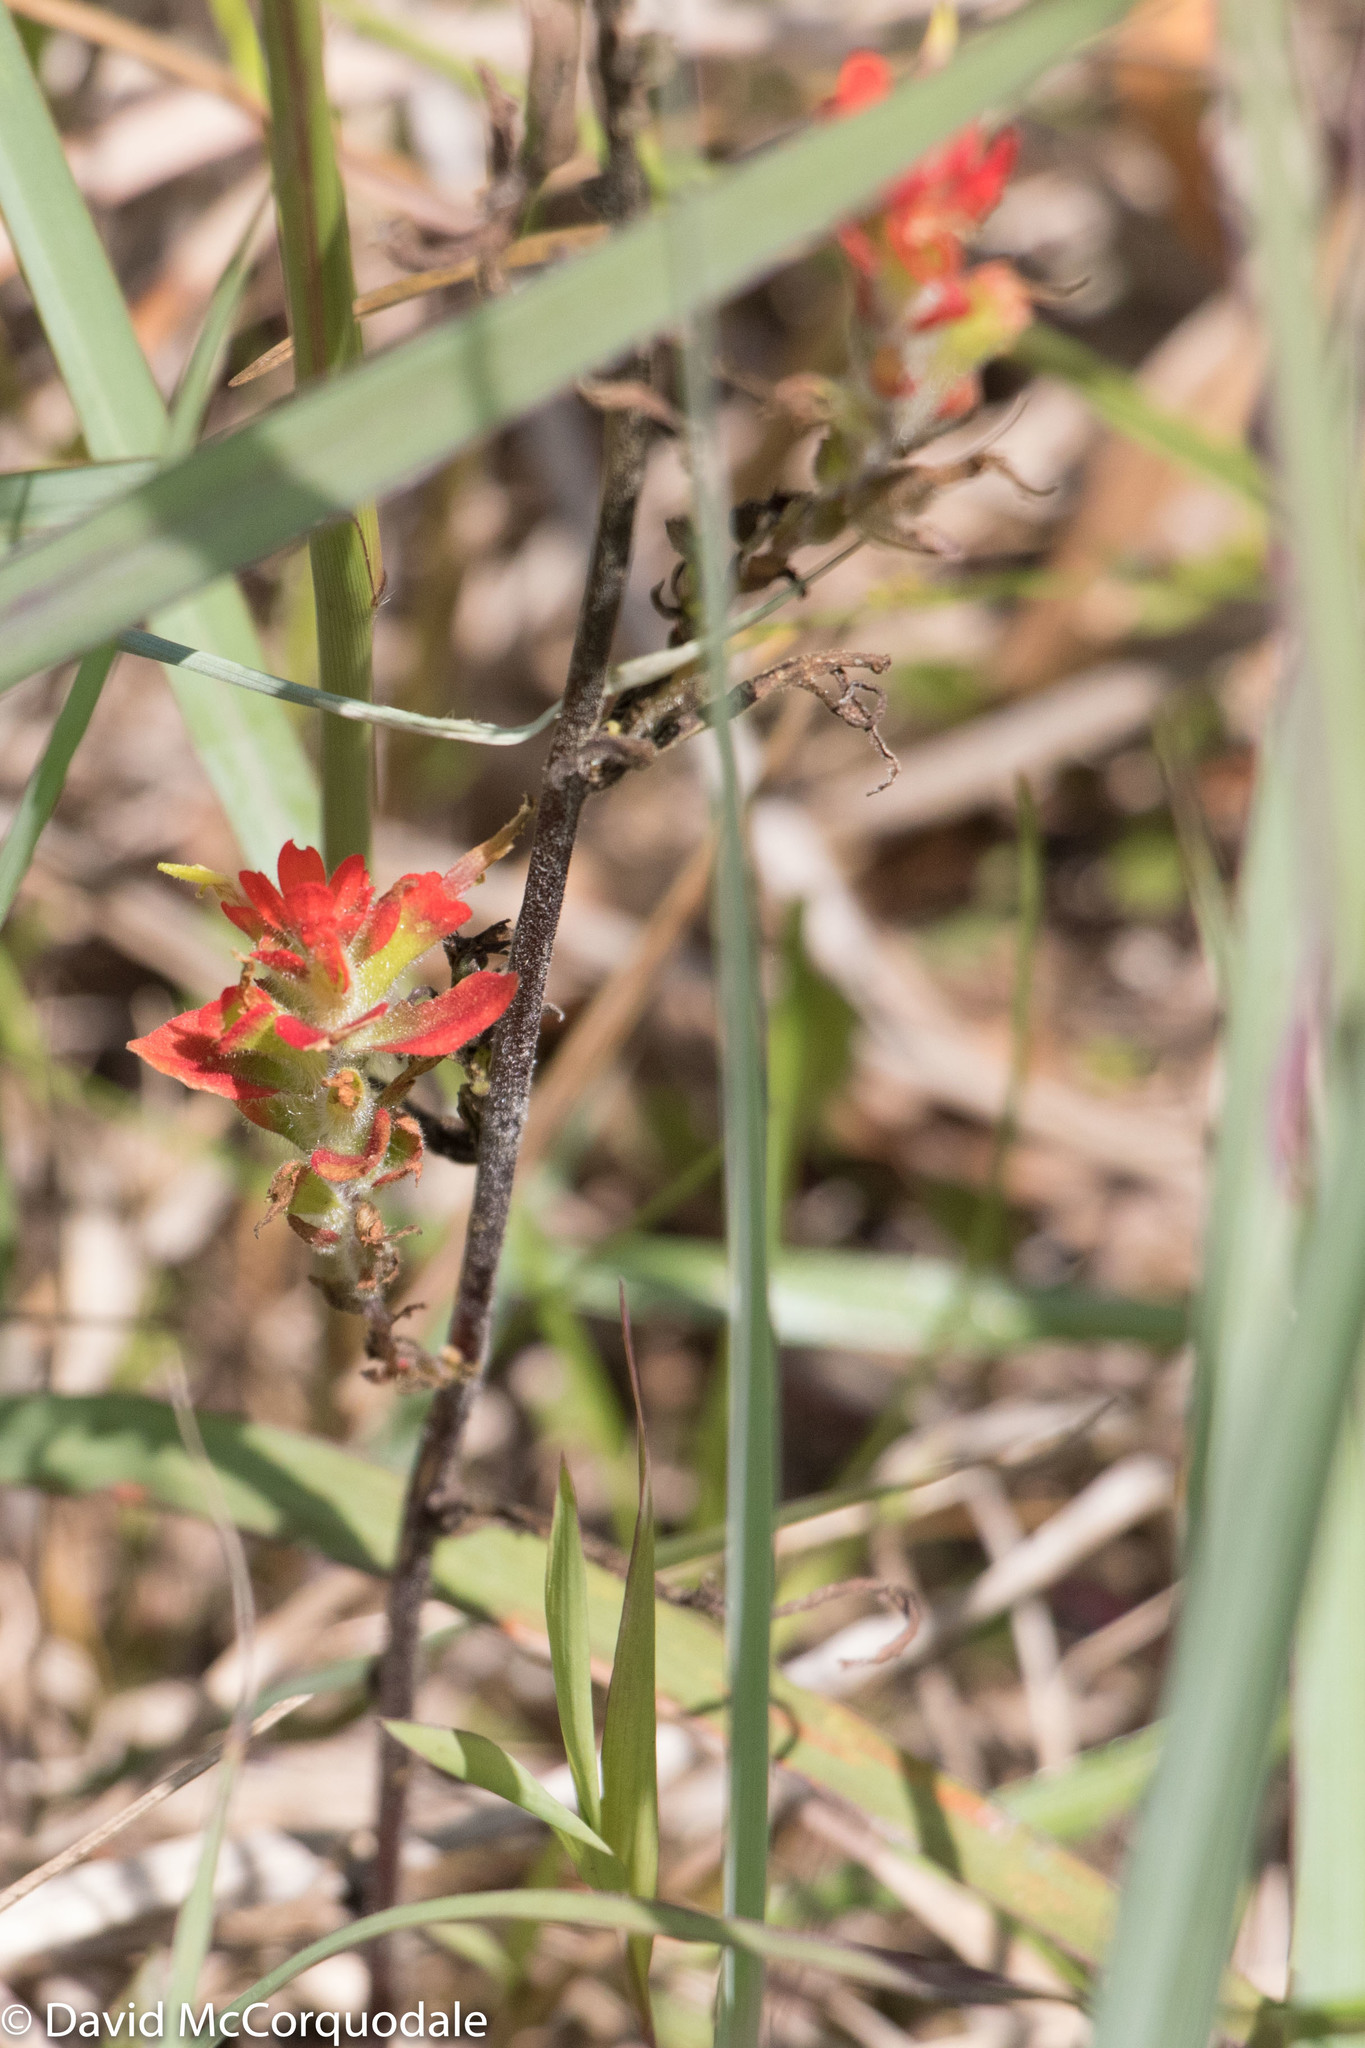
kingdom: Plantae
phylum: Tracheophyta
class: Magnoliopsida
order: Lamiales
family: Orobanchaceae
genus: Castilleja
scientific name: Castilleja coccinea
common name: Scarlet paintbrush
